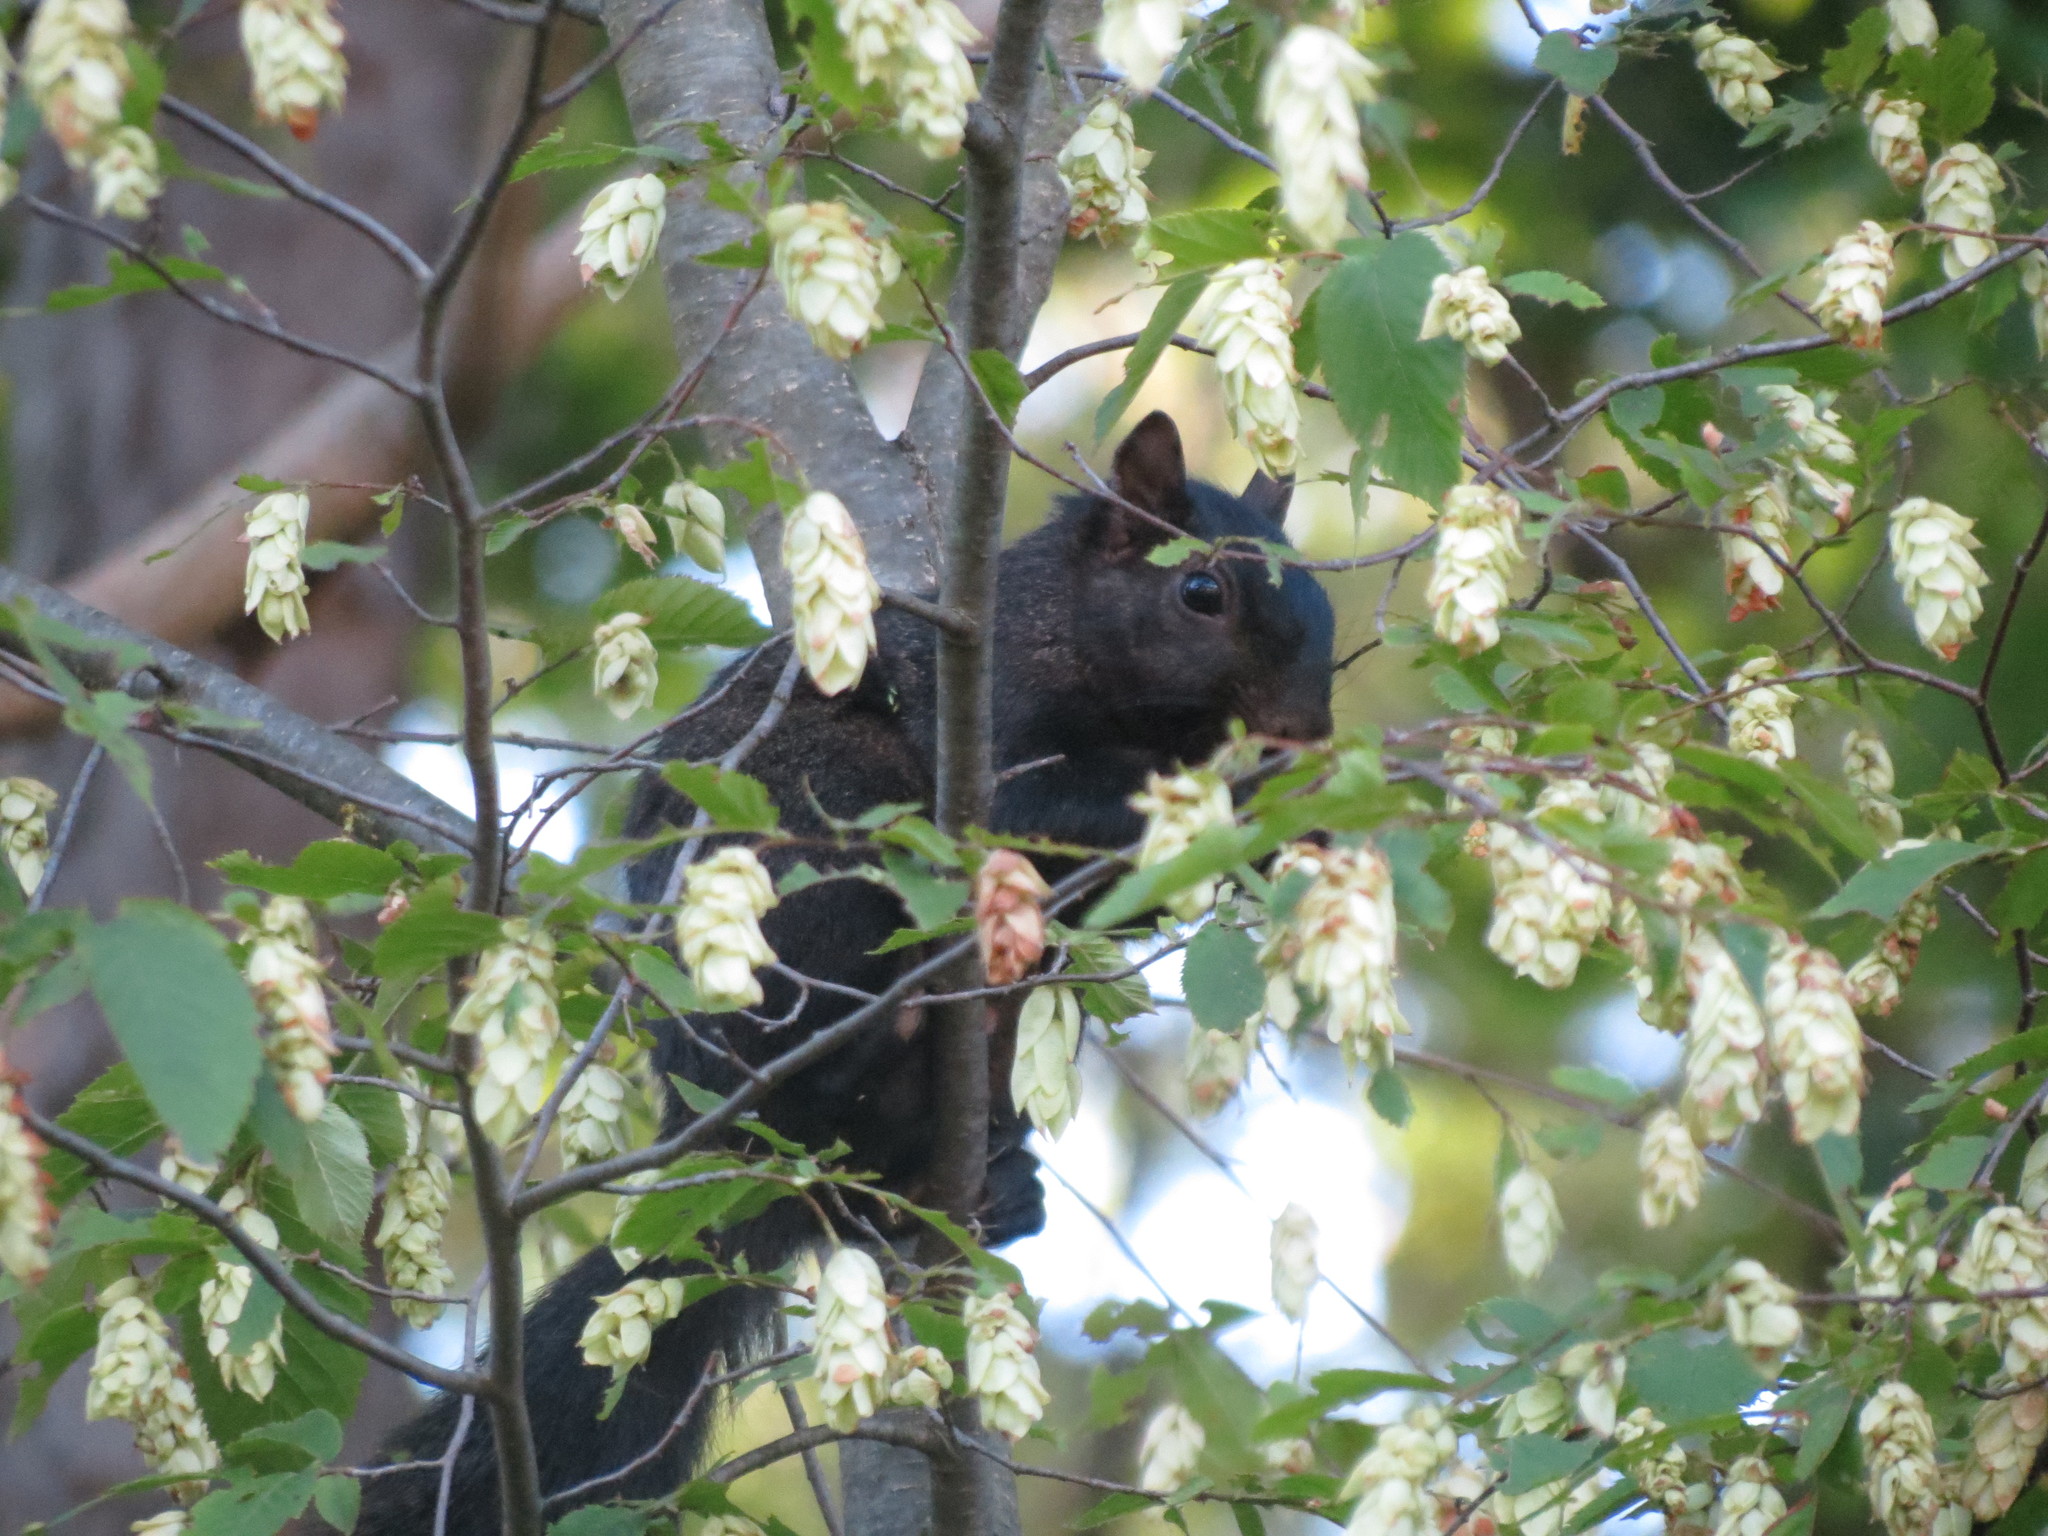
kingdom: Animalia
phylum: Chordata
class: Mammalia
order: Rodentia
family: Sciuridae
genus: Sciurus
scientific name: Sciurus carolinensis
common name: Eastern gray squirrel
